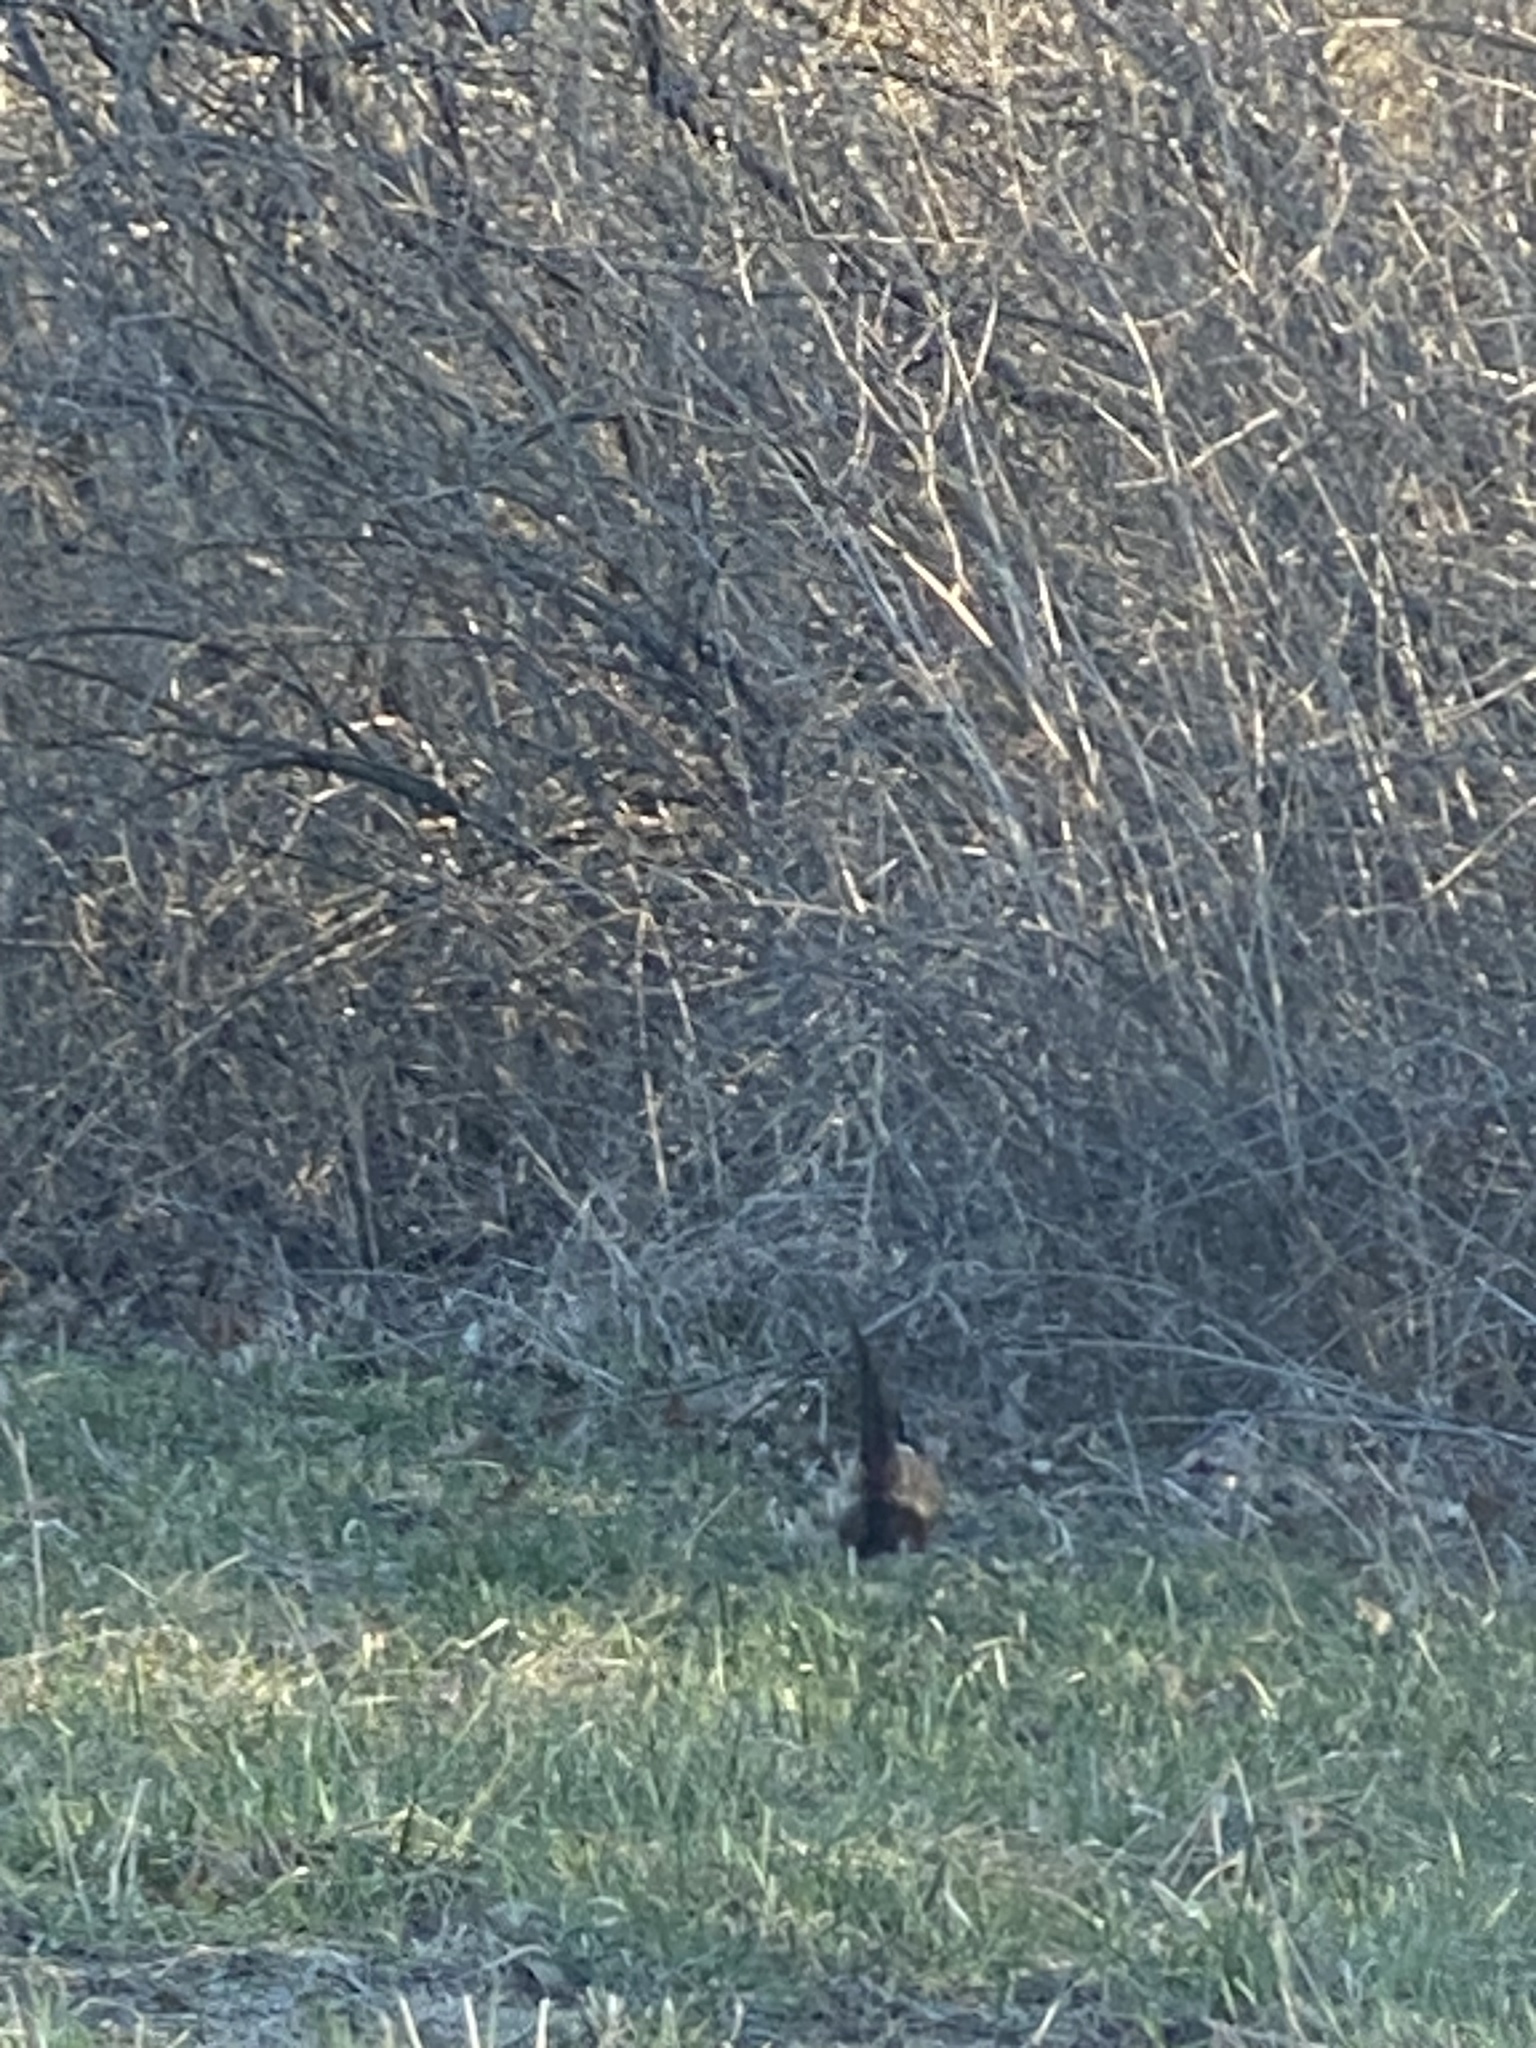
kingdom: Animalia
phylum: Chordata
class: Aves
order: Galliformes
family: Phasianidae
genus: Phasianus
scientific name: Phasianus colchicus
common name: Common pheasant
